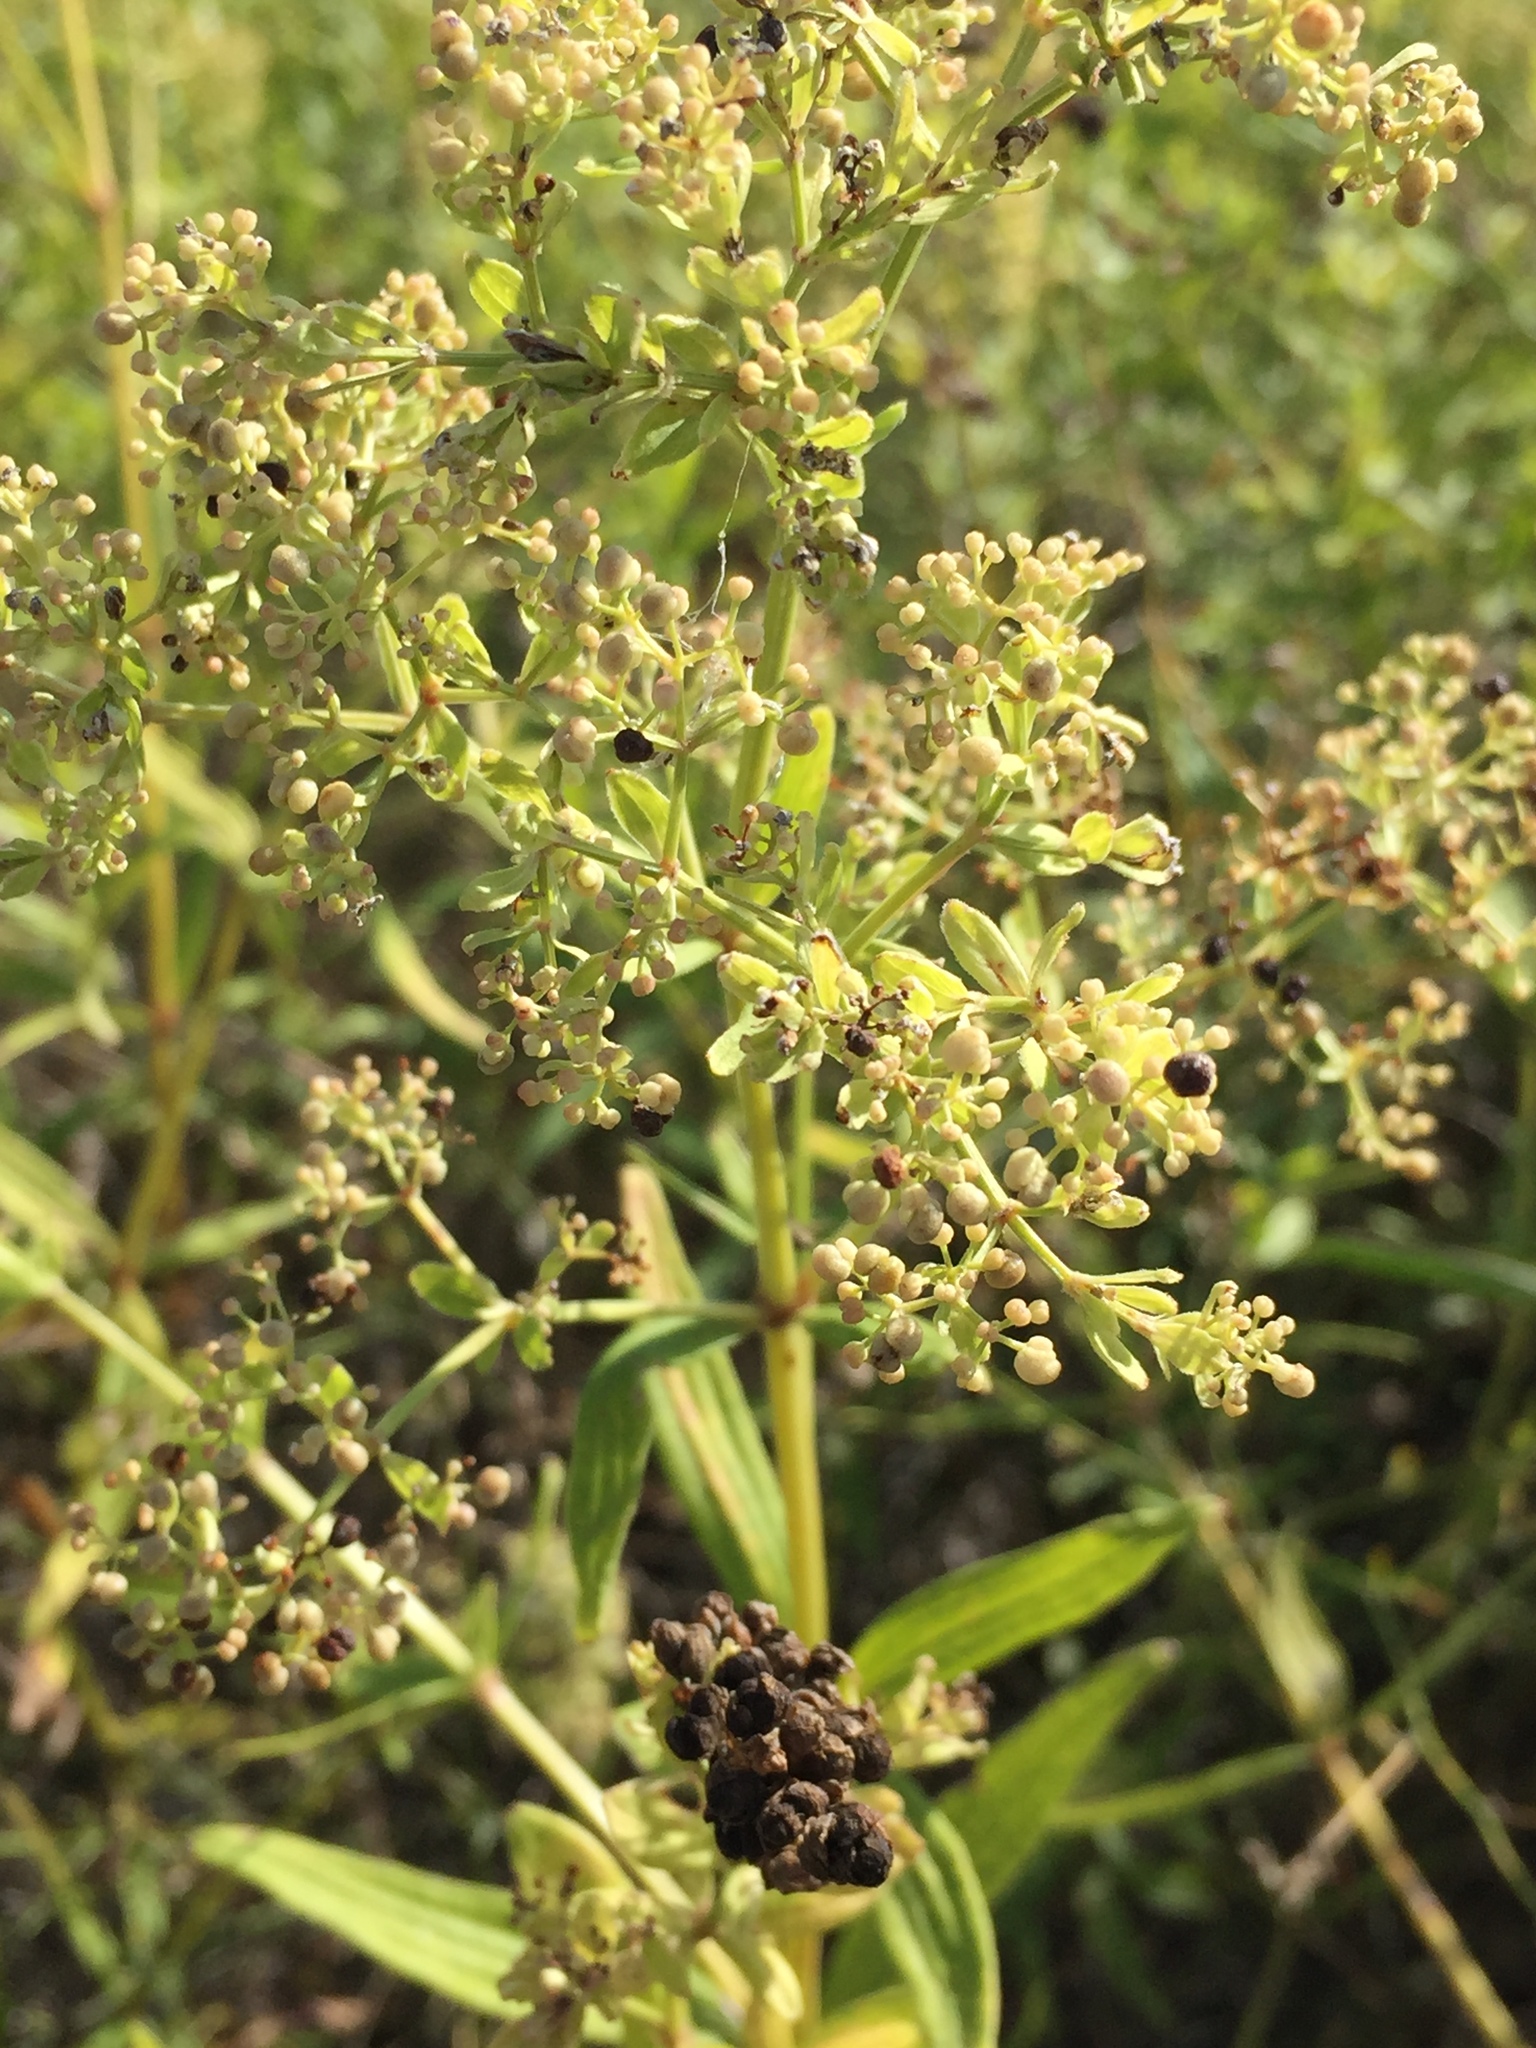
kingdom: Plantae
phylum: Tracheophyta
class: Magnoliopsida
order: Gentianales
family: Rubiaceae
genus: Galium
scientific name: Galium mollugo
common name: Hedge bedstraw
